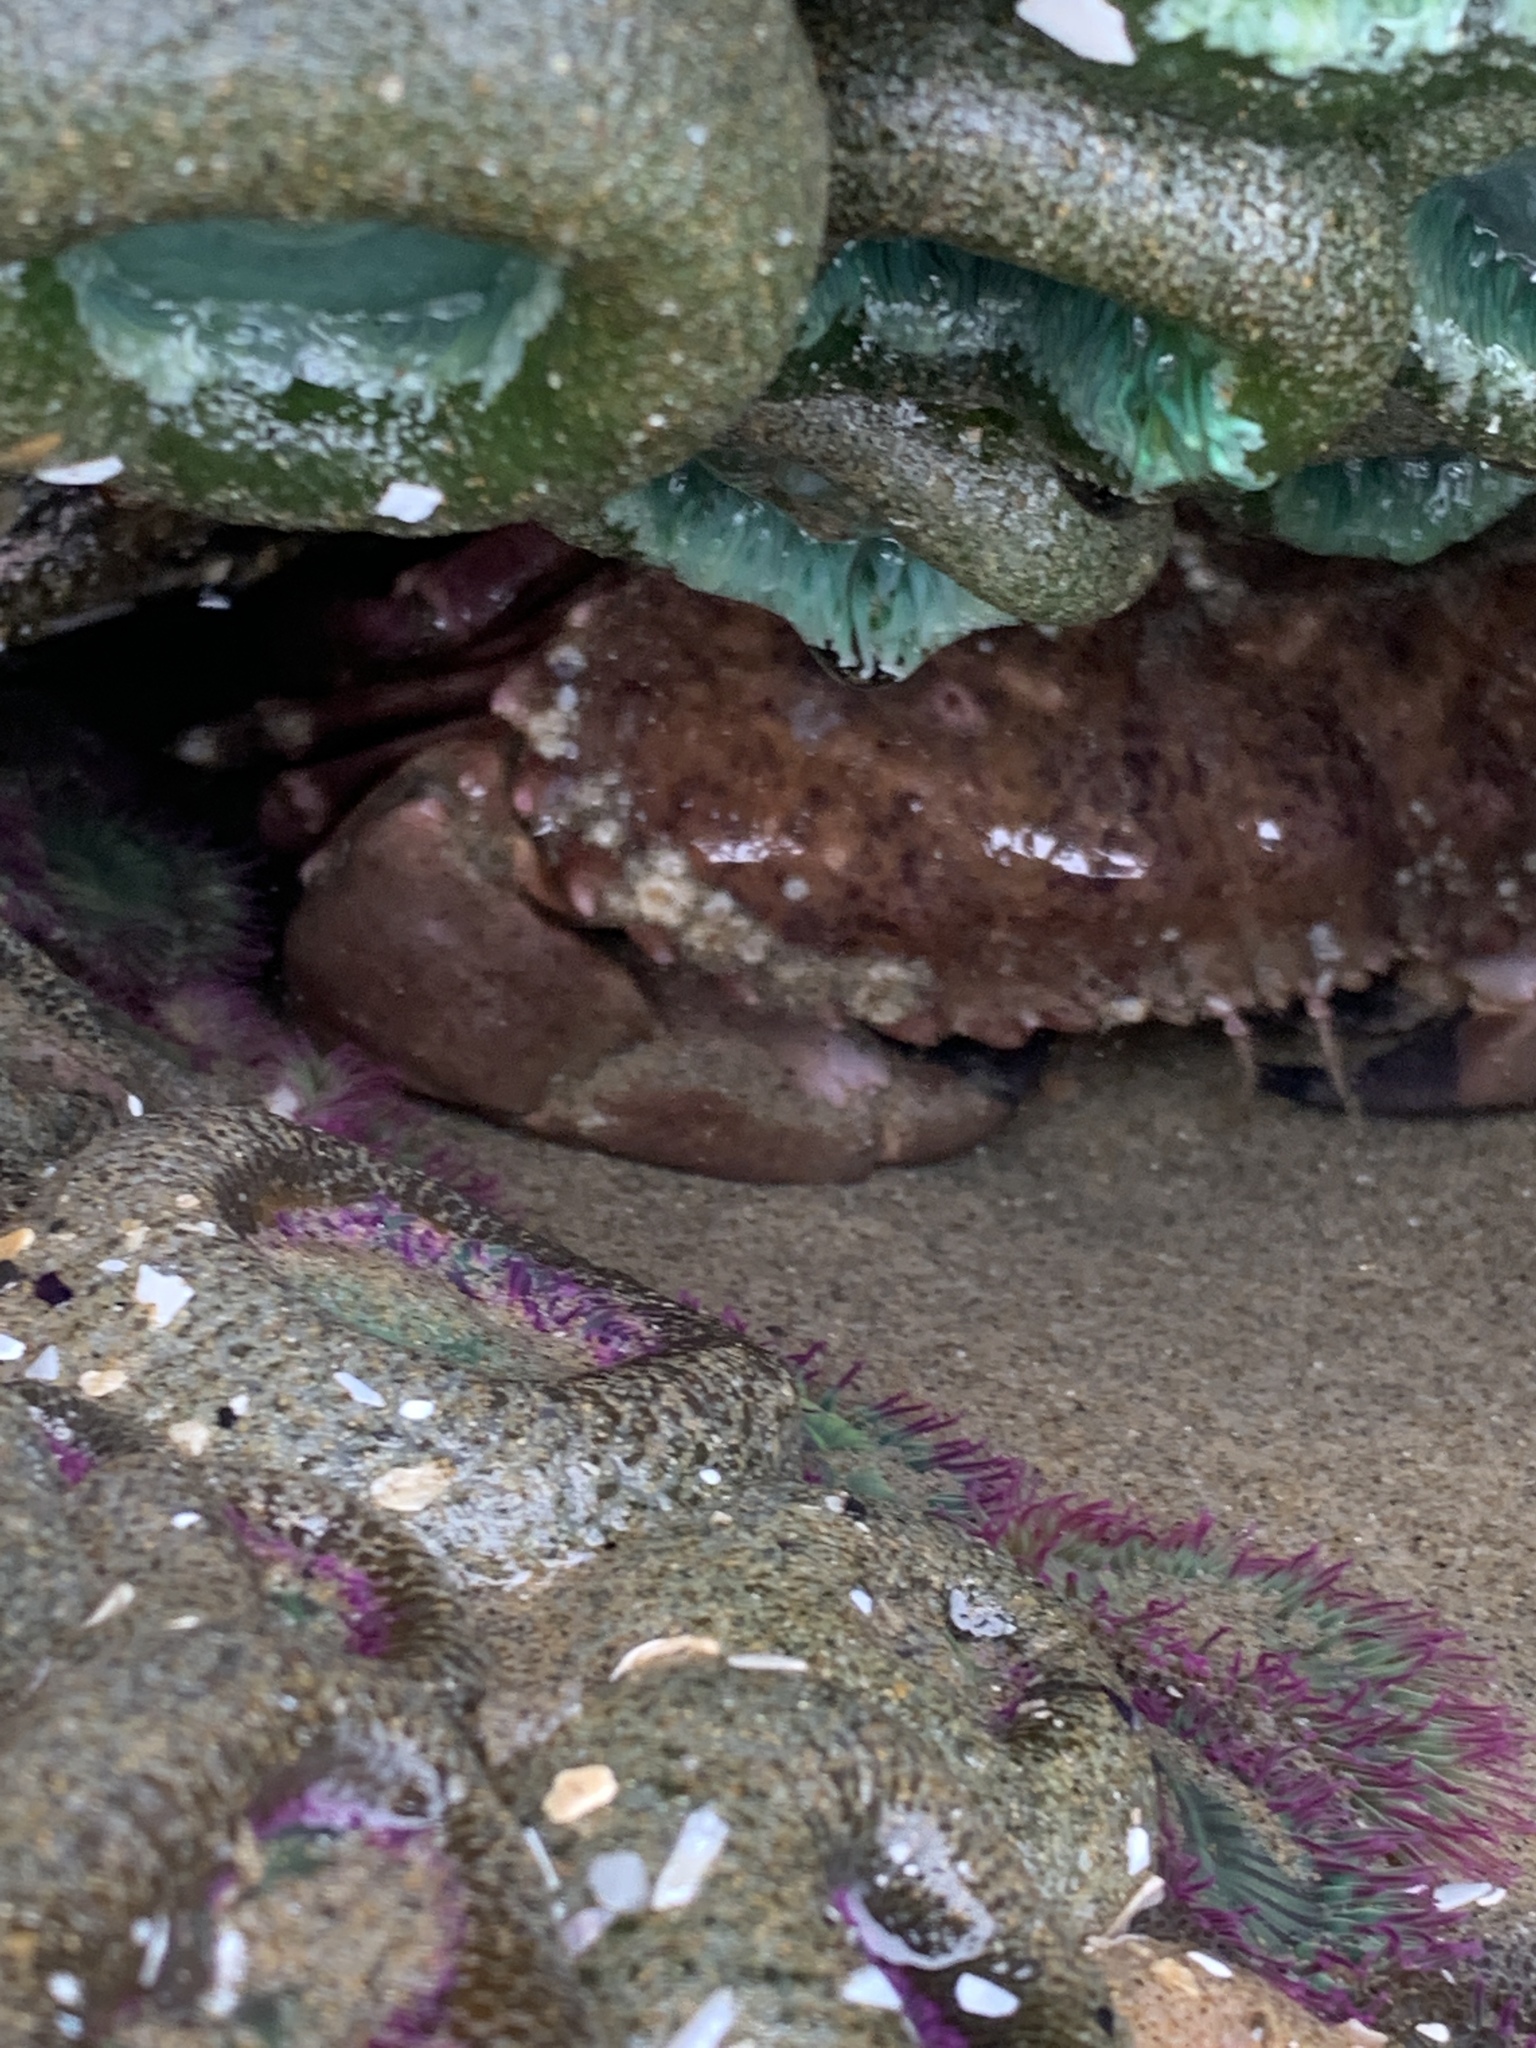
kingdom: Animalia
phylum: Arthropoda
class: Malacostraca
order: Decapoda
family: Cancridae
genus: Romaleon
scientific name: Romaleon antennarium
